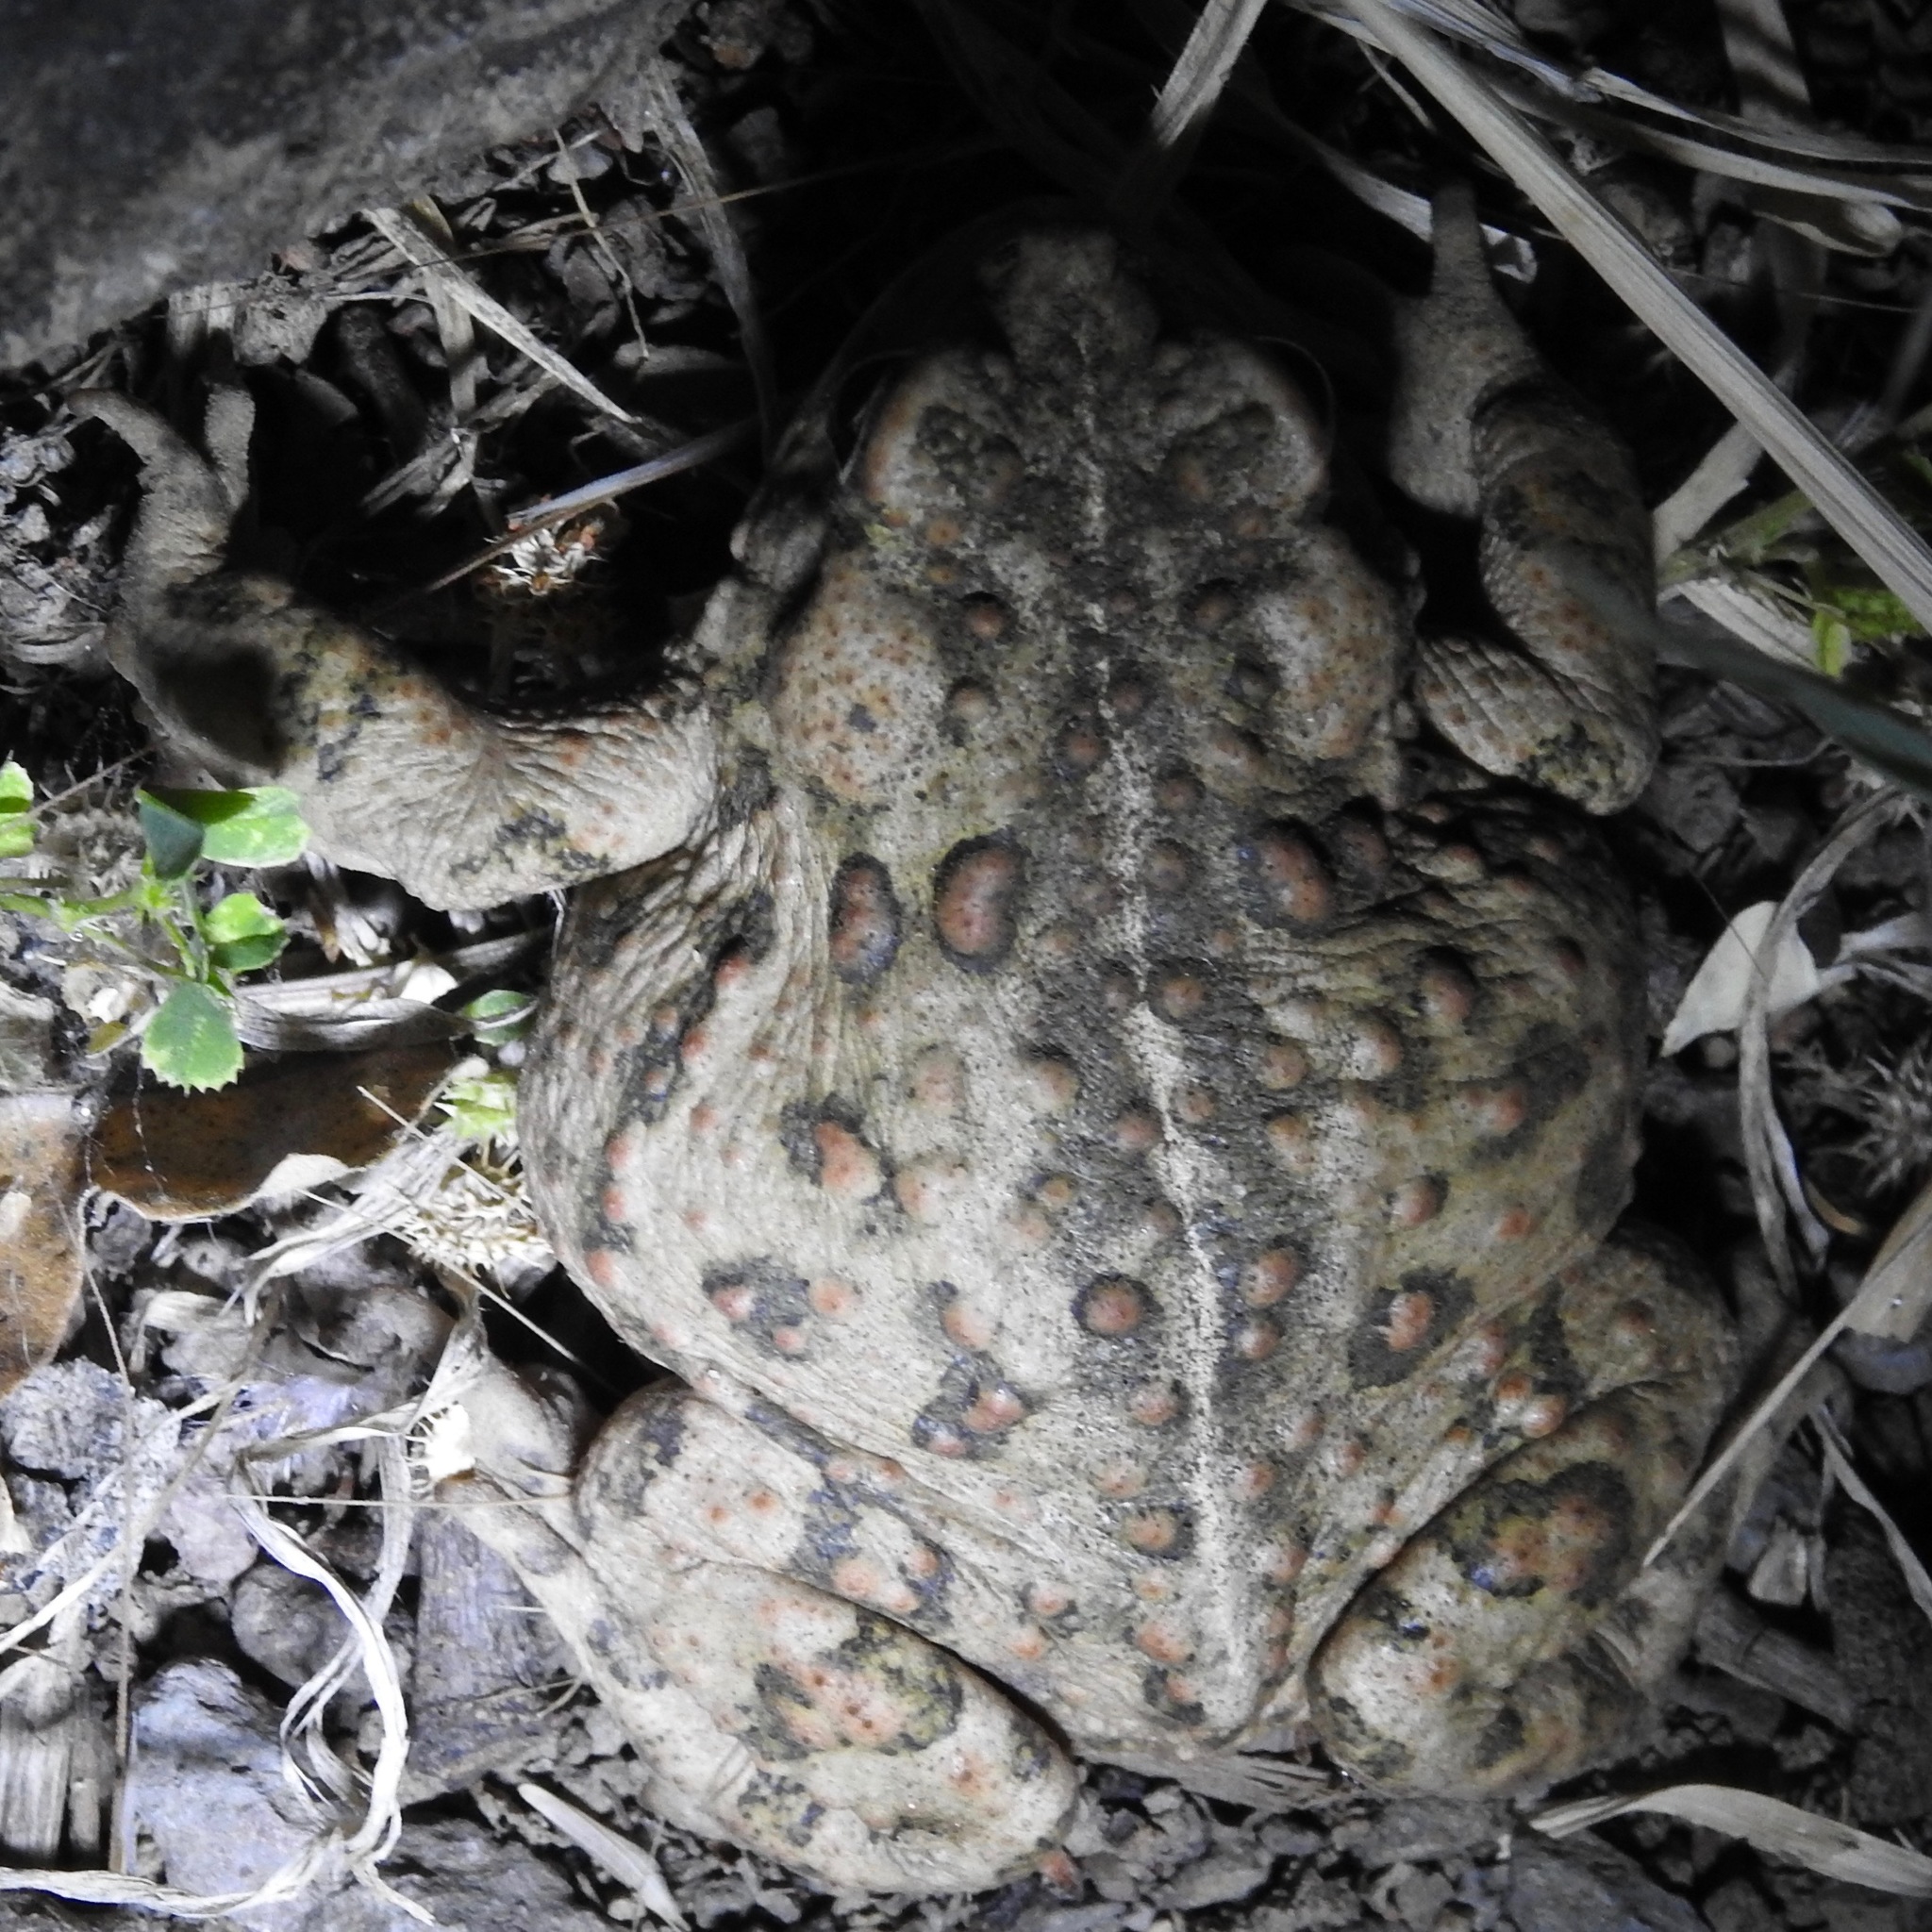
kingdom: Animalia
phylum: Chordata
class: Amphibia
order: Anura
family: Bufonidae
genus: Anaxyrus
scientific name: Anaxyrus boreas
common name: Western toad
